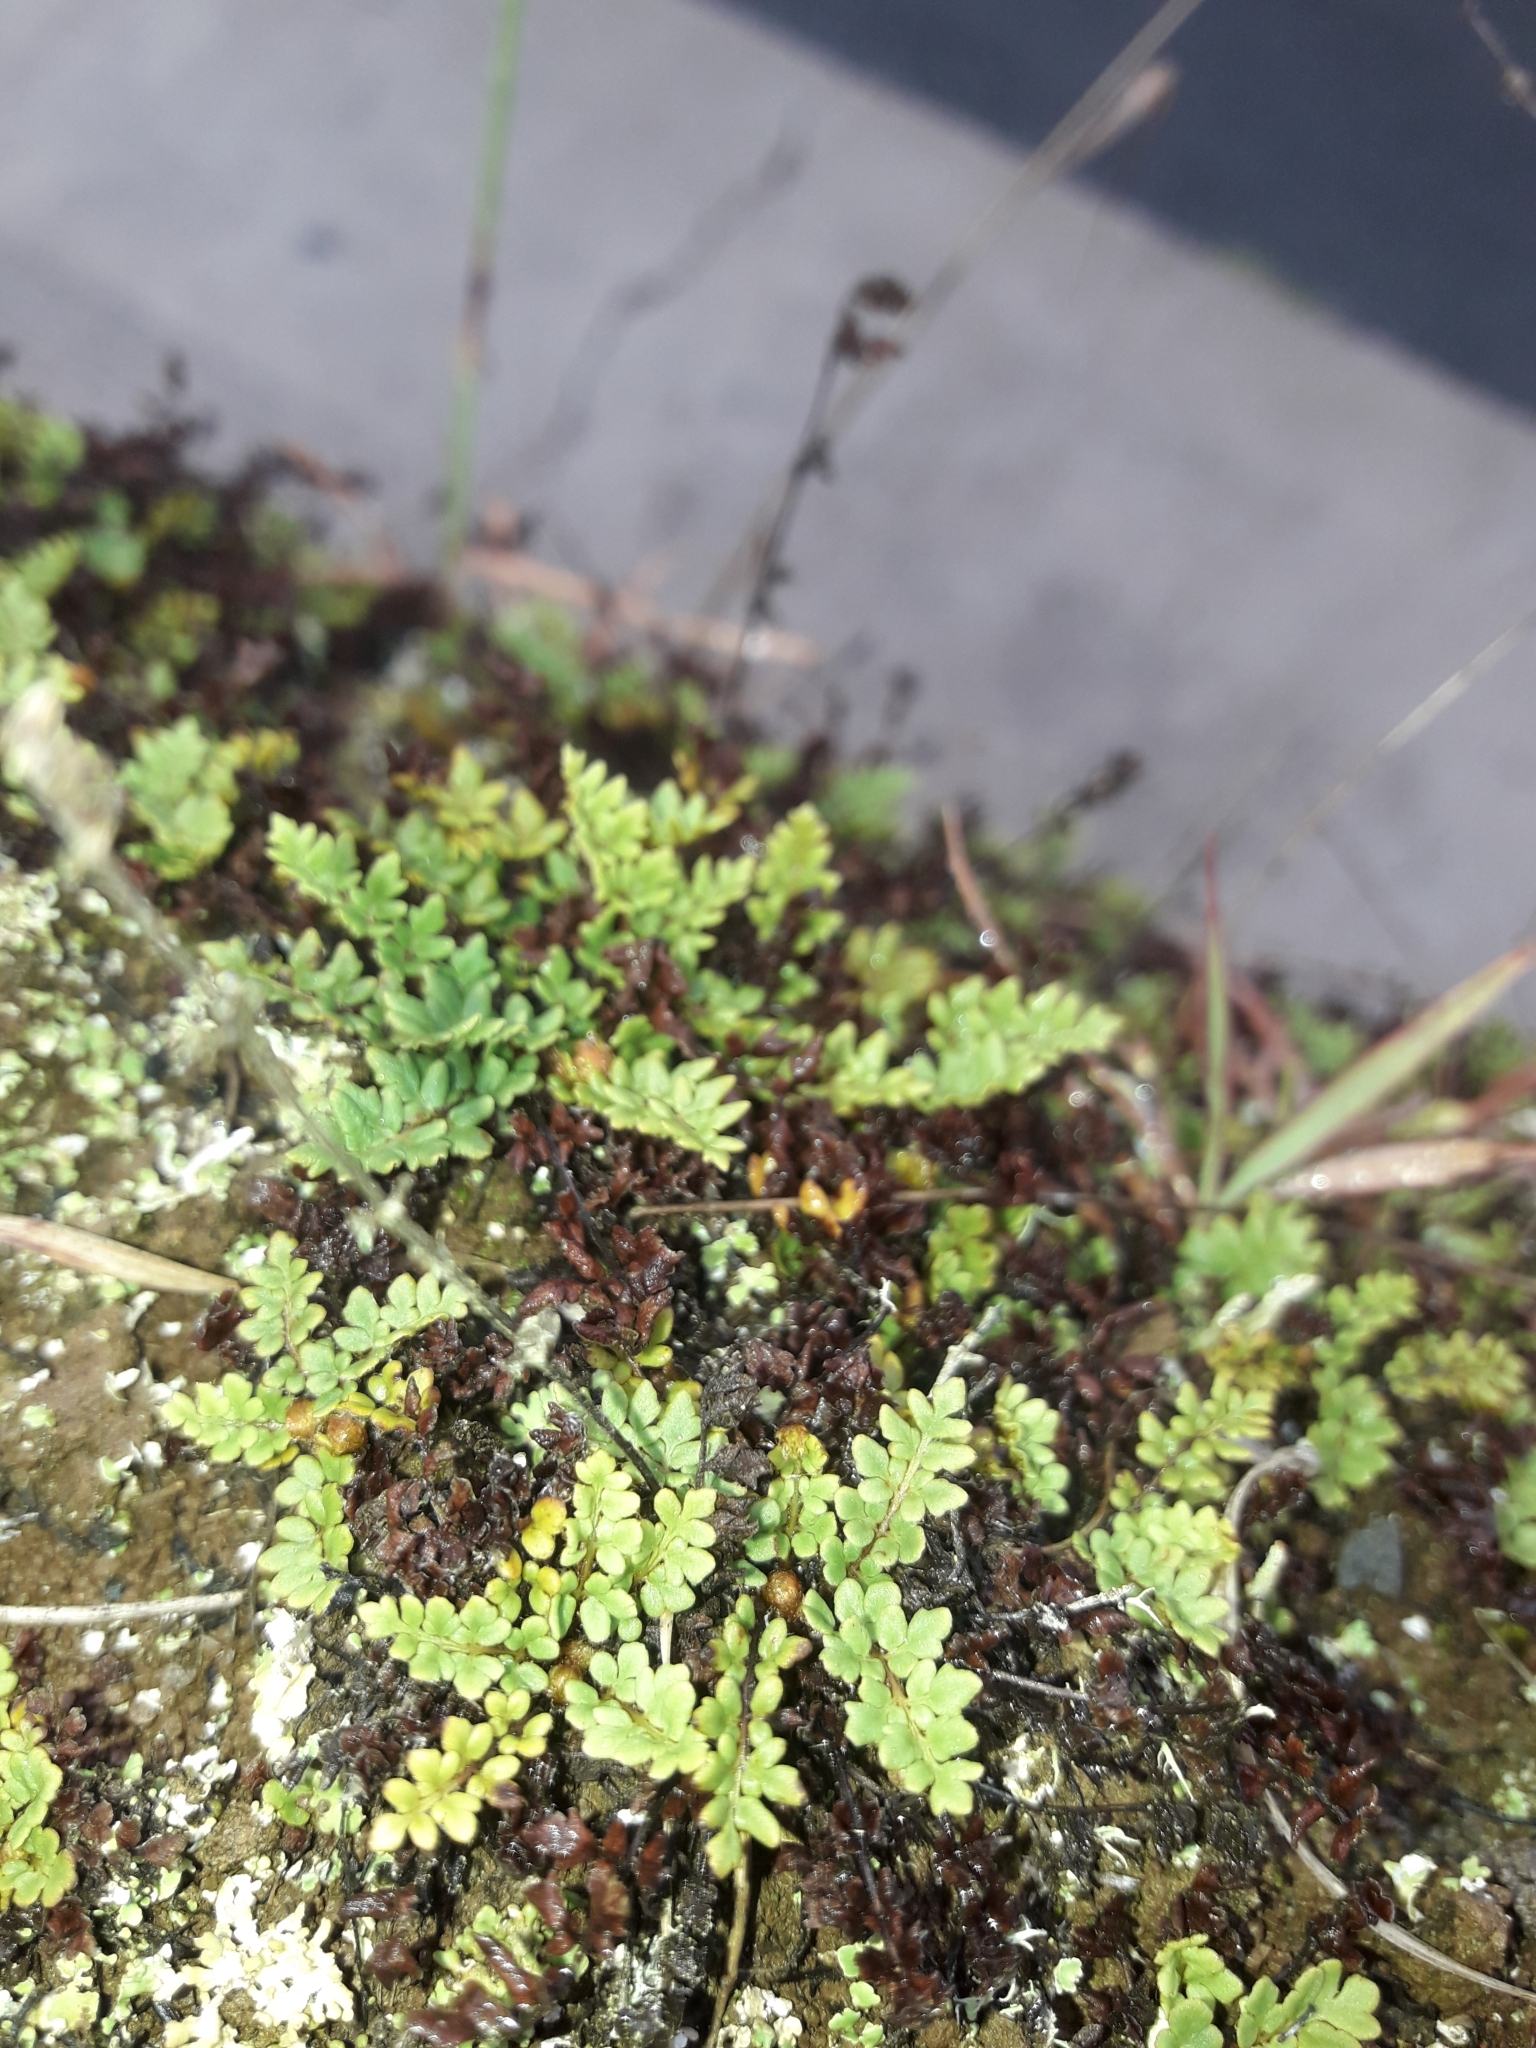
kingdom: Plantae
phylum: Tracheophyta
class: Polypodiopsida
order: Polypodiales
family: Pteridaceae
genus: Cheilanthes
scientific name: Cheilanthes distans
